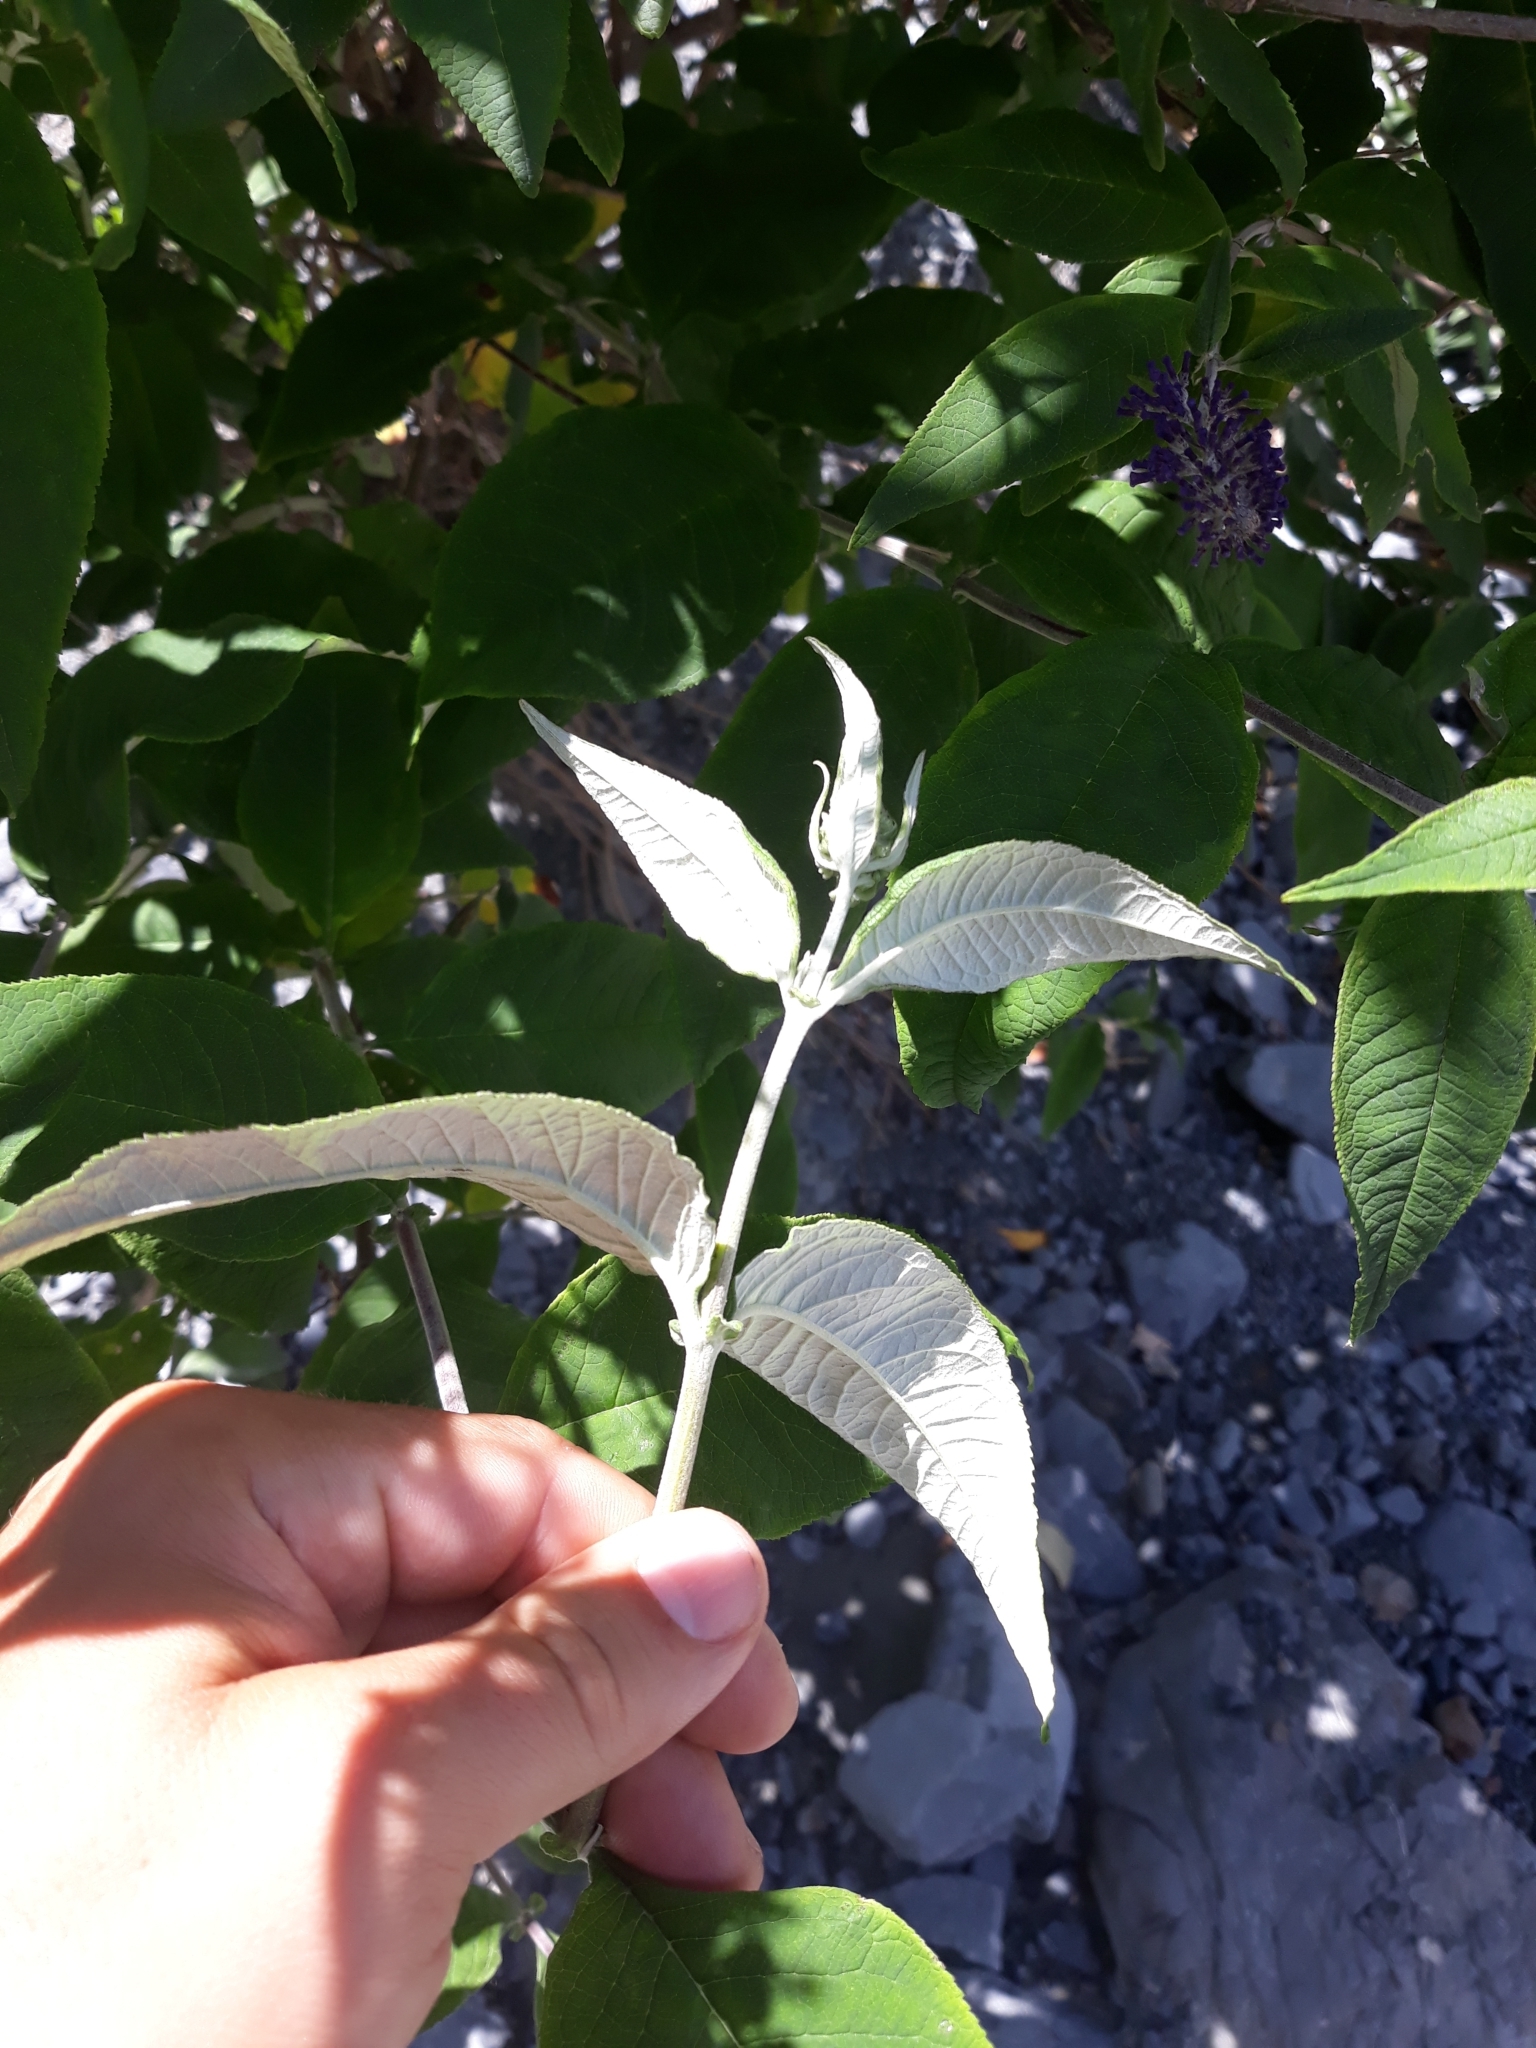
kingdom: Plantae
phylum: Tracheophyta
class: Magnoliopsida
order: Lamiales
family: Scrophulariaceae
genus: Buddleja
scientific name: Buddleja davidii
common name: Butterfly-bush
